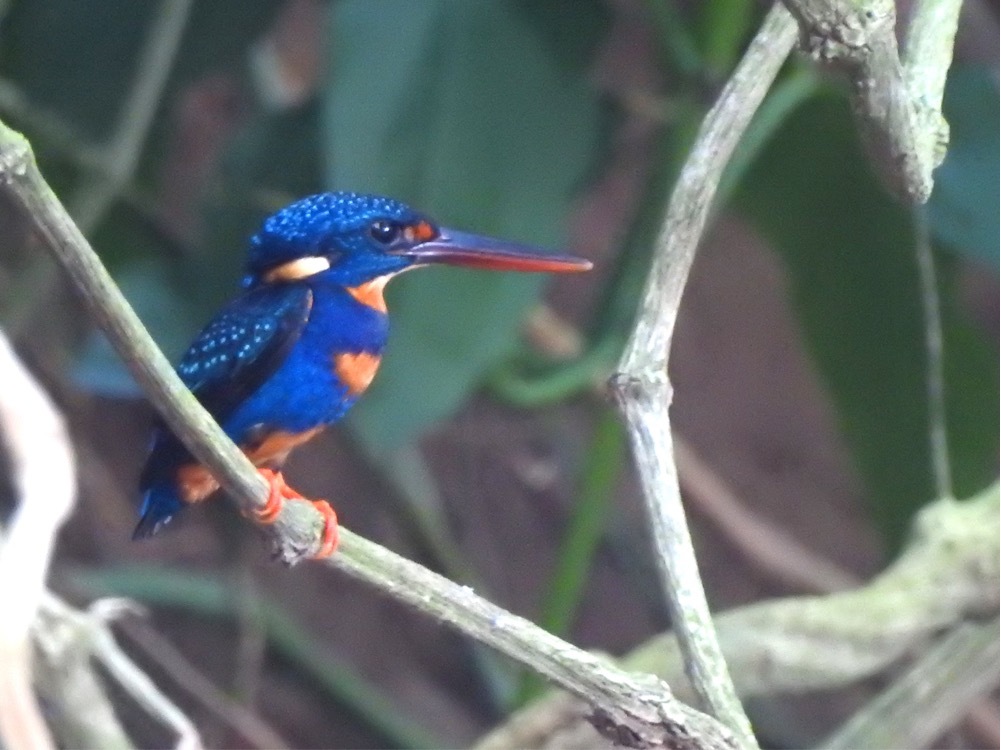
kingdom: Animalia
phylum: Chordata
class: Aves
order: Coraciiformes
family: Alcedinidae
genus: Ceyx
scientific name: Ceyx cyanopectus
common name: Indigo-banded kingfisher
